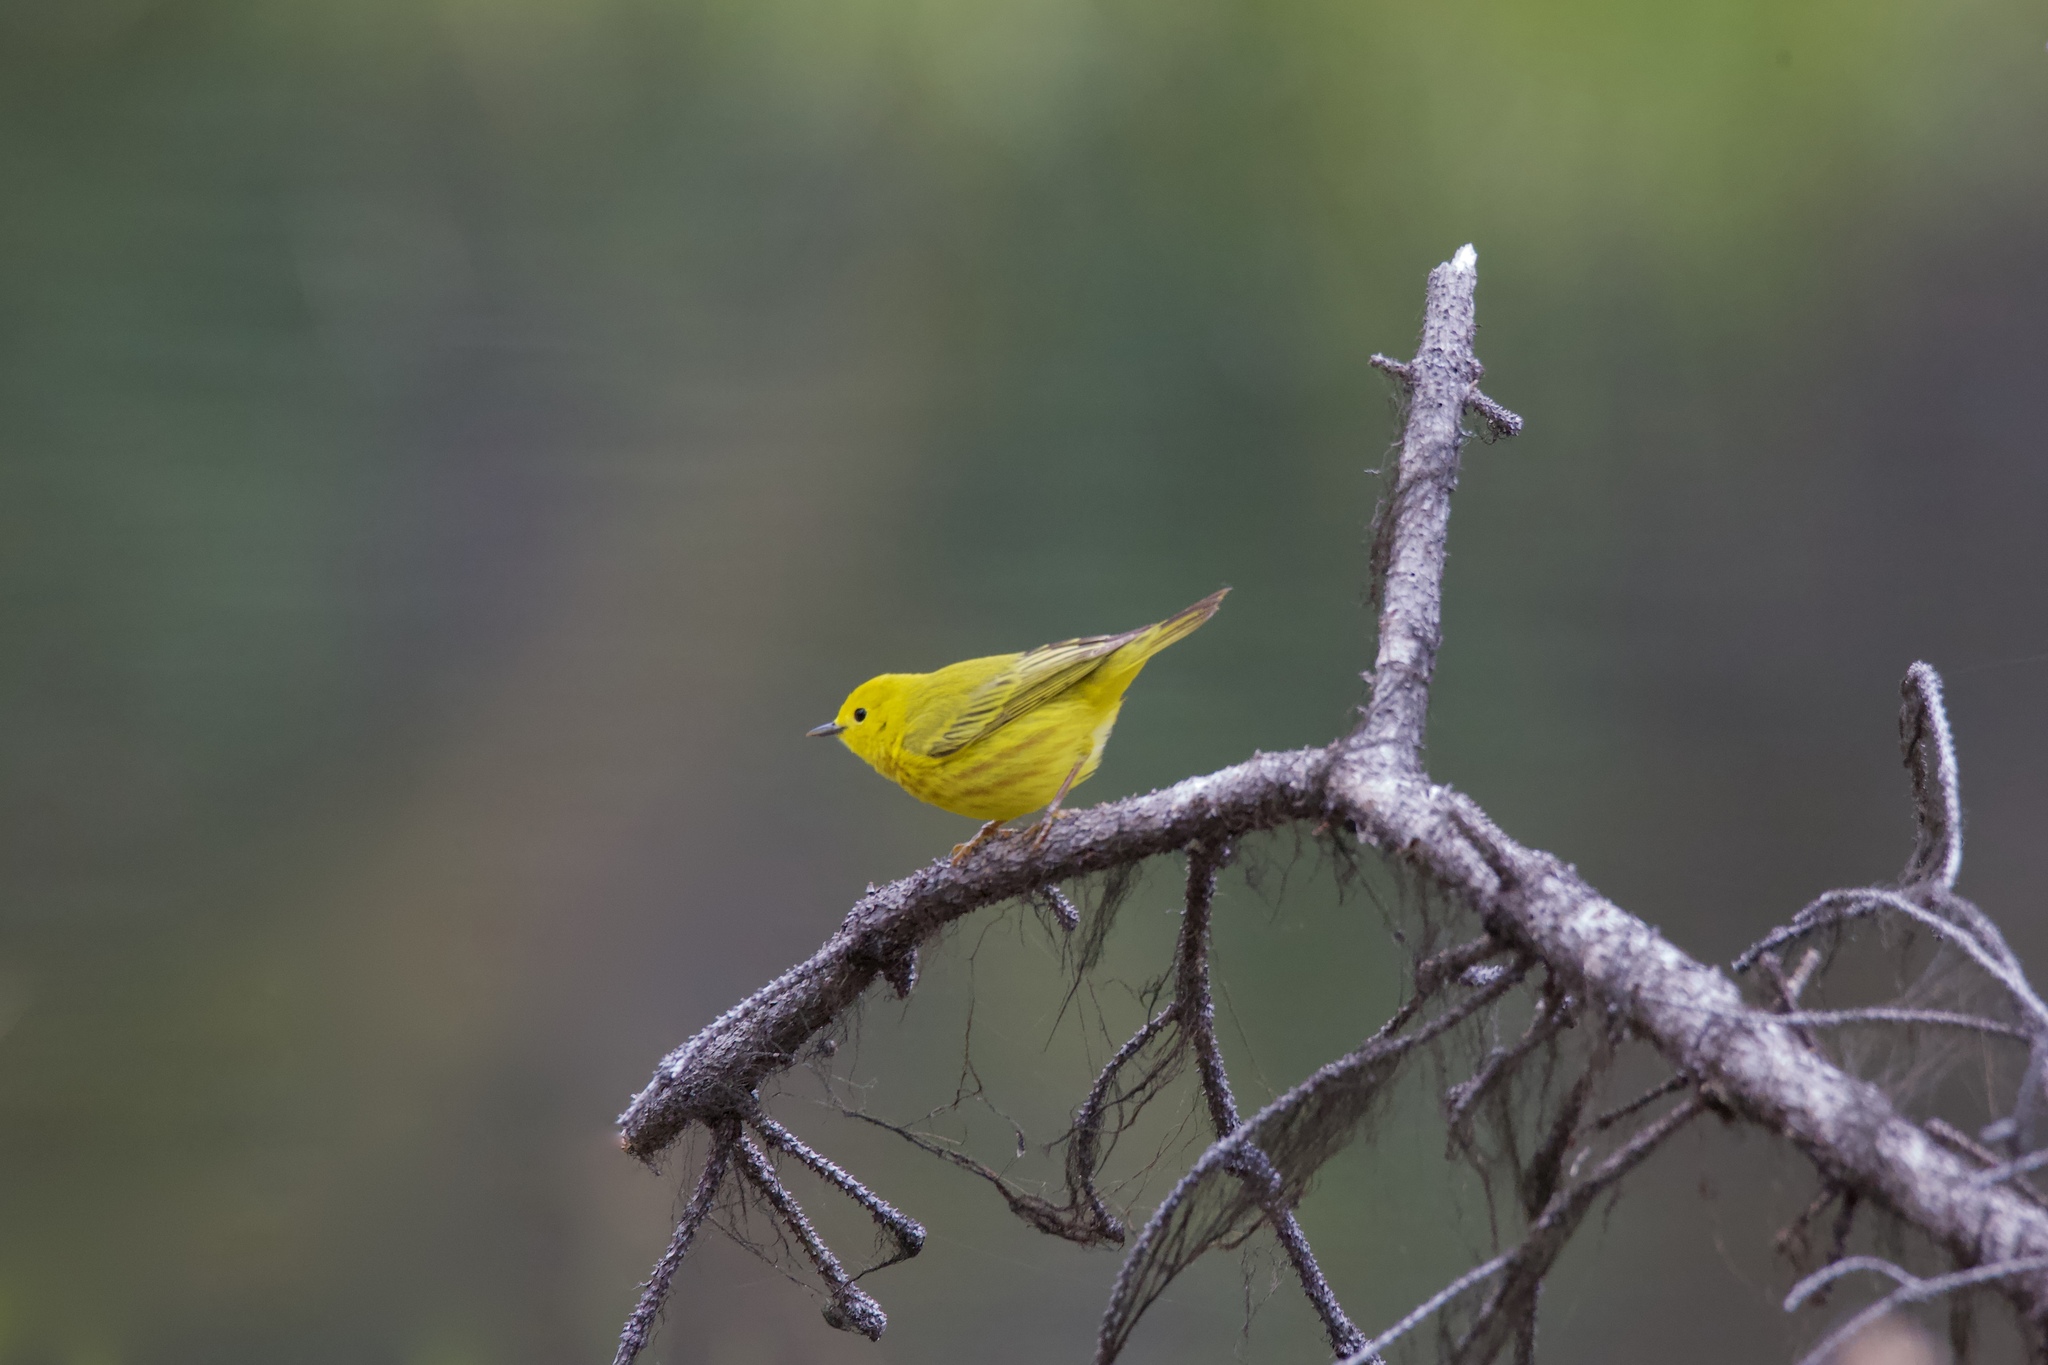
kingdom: Animalia
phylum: Chordata
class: Aves
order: Passeriformes
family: Parulidae
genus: Setophaga
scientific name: Setophaga petechia
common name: Yellow warbler
